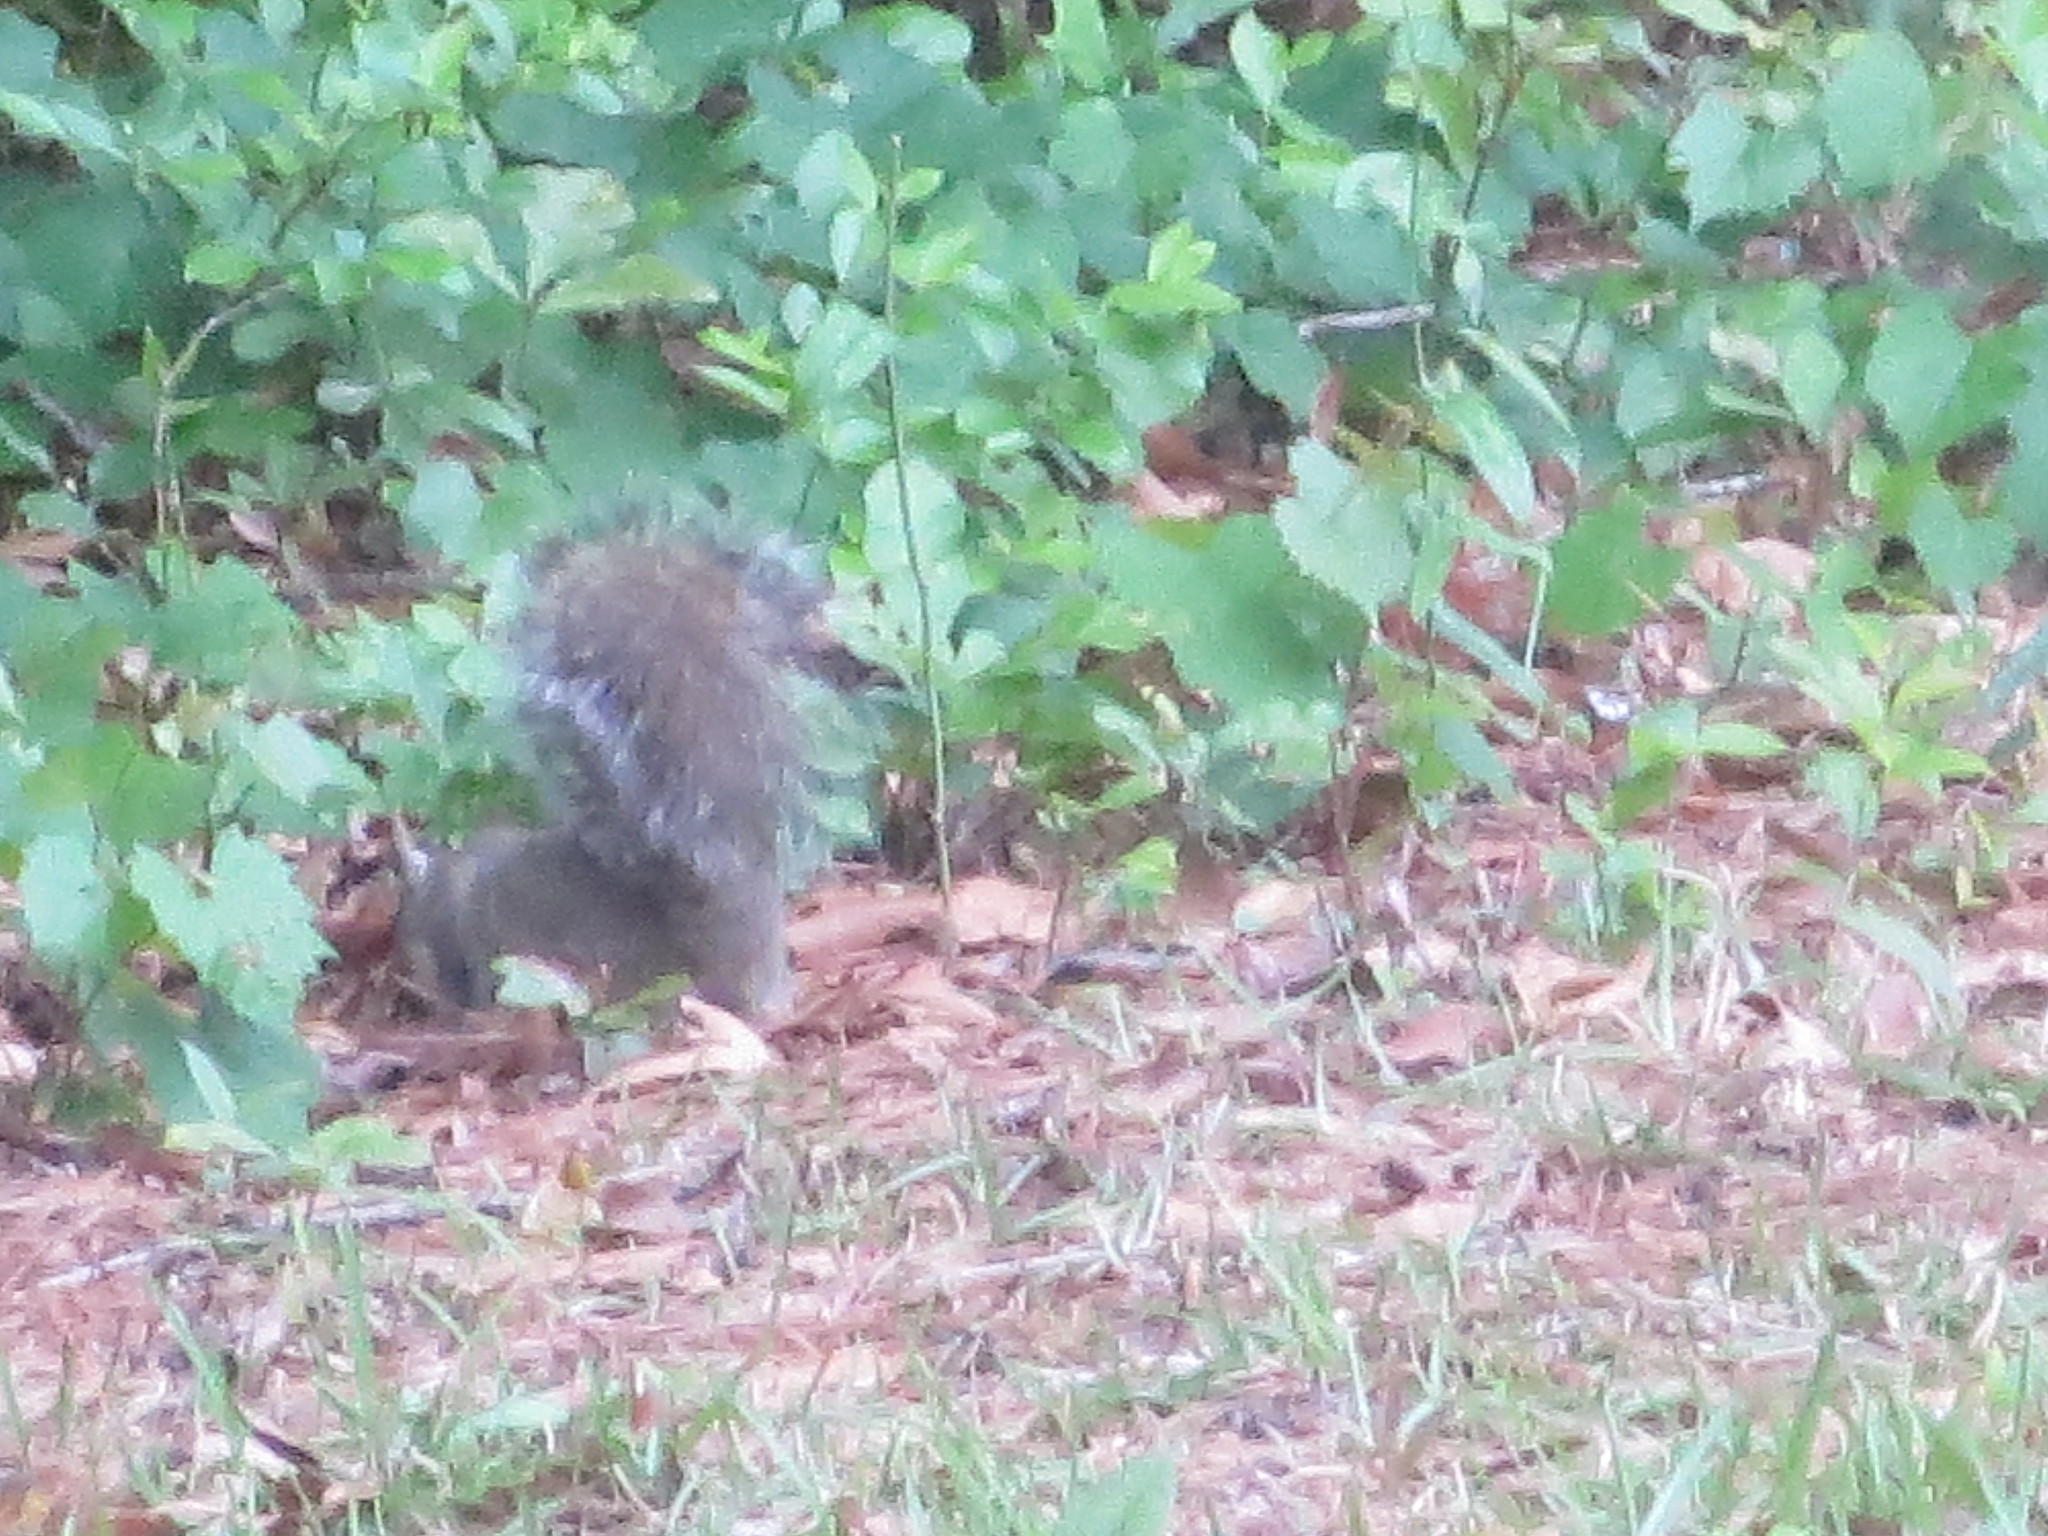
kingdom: Animalia
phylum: Chordata
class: Mammalia
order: Rodentia
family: Sciuridae
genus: Sciurus
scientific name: Sciurus carolinensis
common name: Eastern gray squirrel
